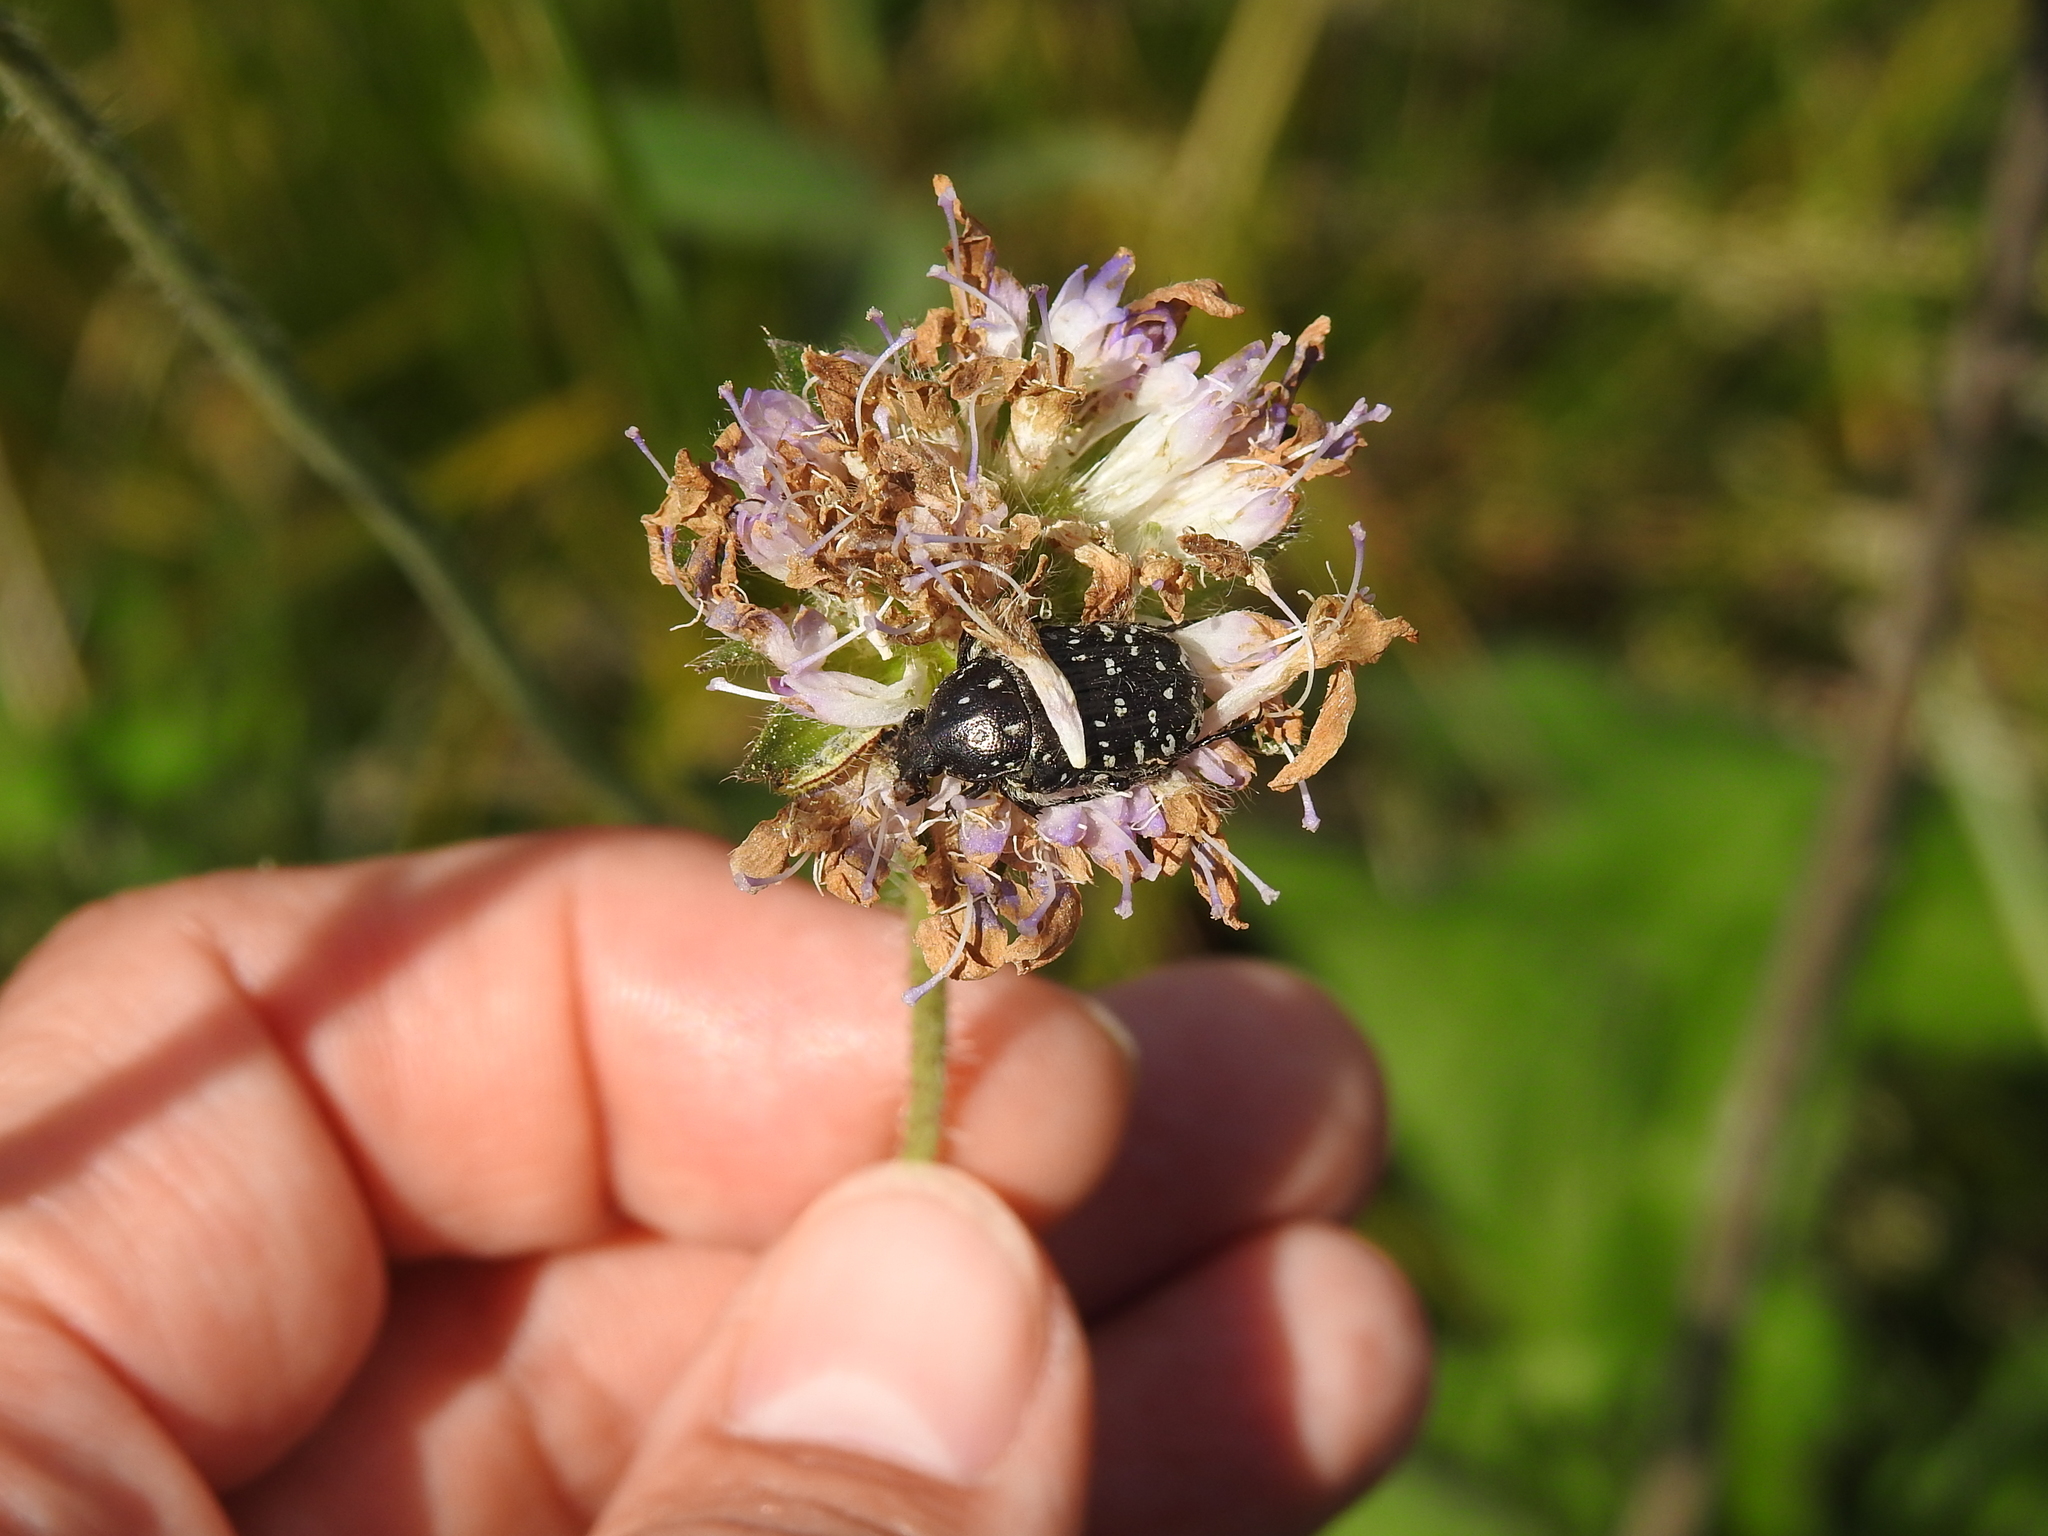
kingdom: Animalia
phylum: Arthropoda
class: Insecta
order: Coleoptera
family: Scarabaeidae
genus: Oxythyrea
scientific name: Oxythyrea funesta
